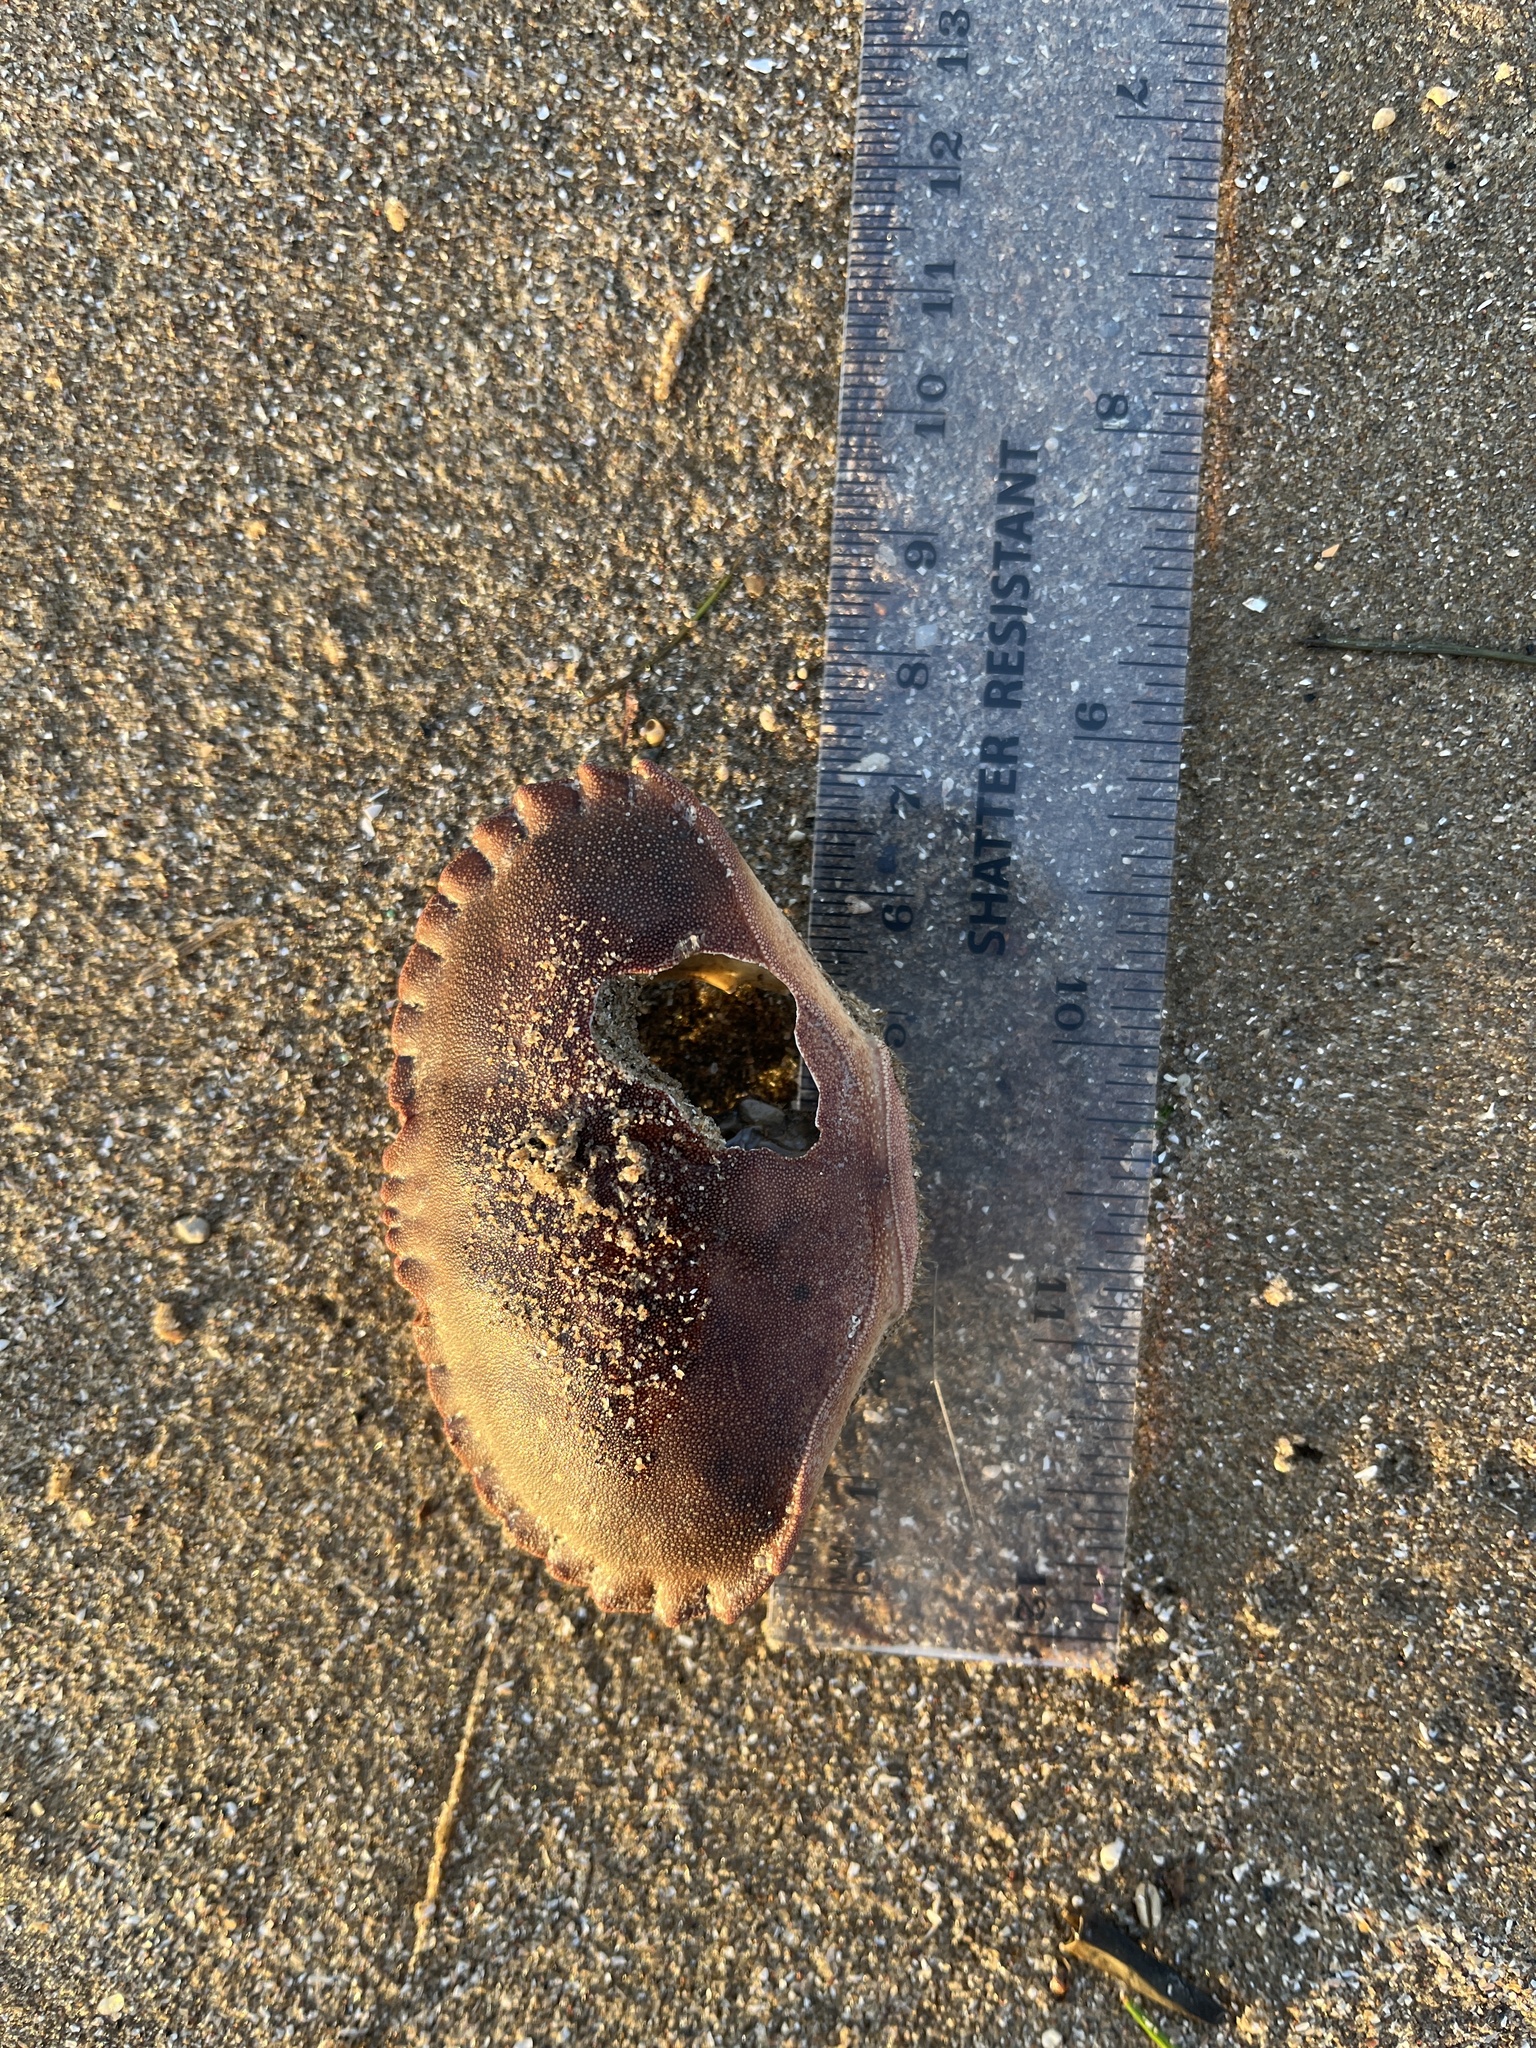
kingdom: Animalia
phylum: Arthropoda
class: Malacostraca
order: Decapoda
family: Cancridae
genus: Cancer
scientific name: Cancer pagurus
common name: Edible crab
